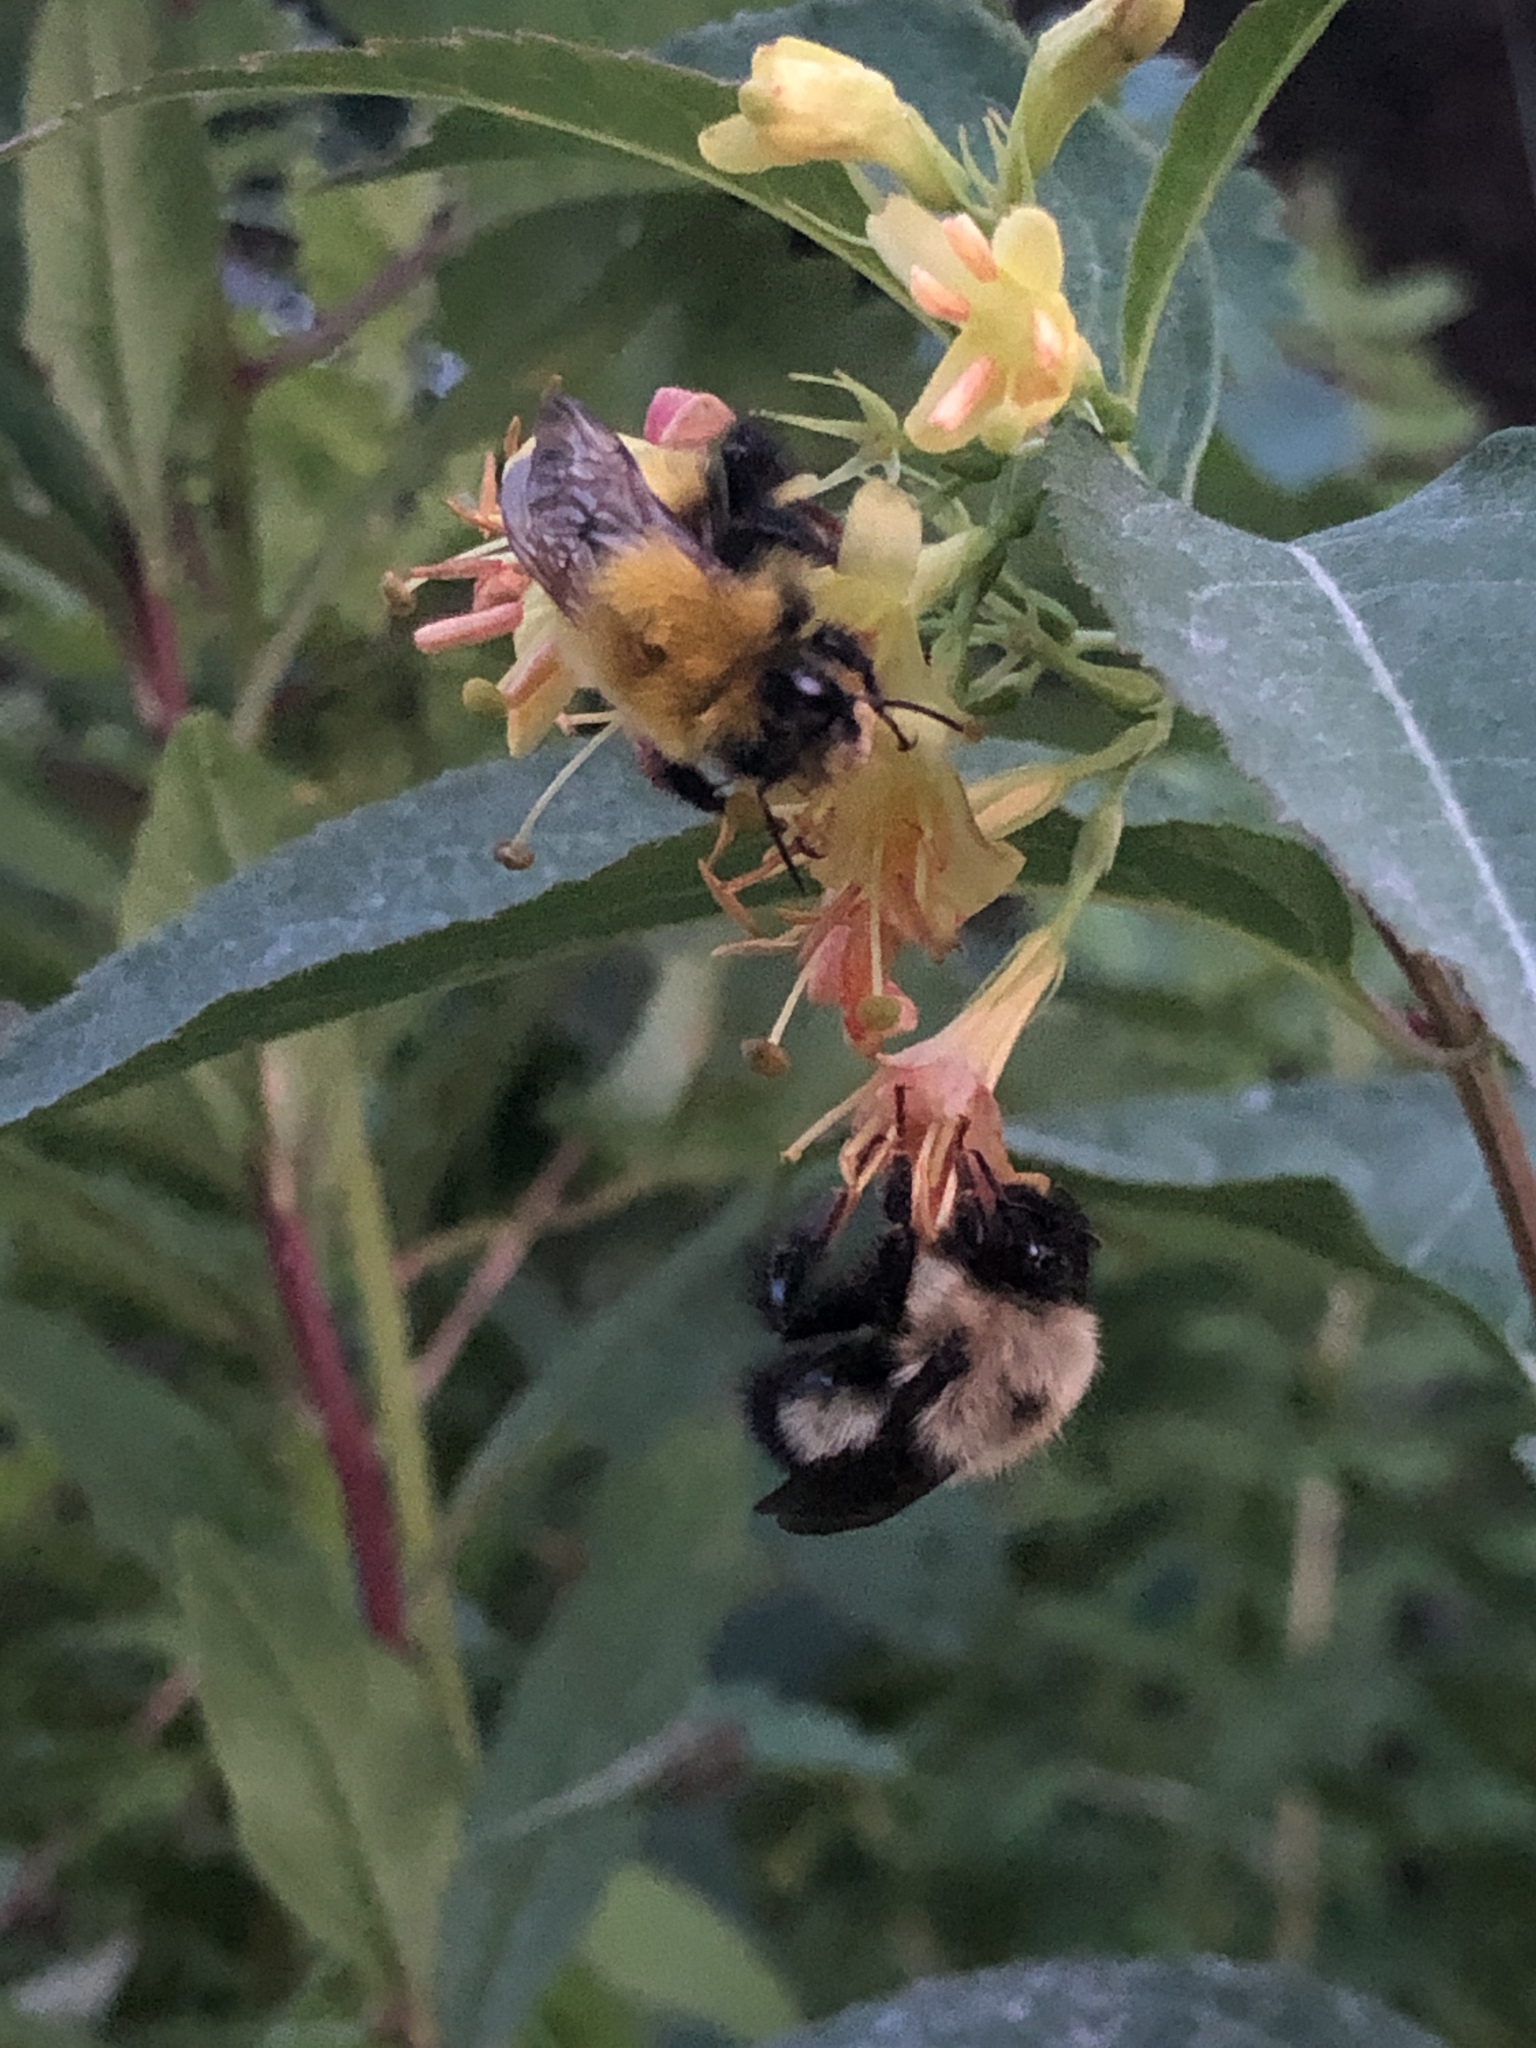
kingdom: Animalia
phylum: Arthropoda
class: Insecta
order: Hymenoptera
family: Apidae
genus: Bombus
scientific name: Bombus perplexus
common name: Confusing bumble bee
